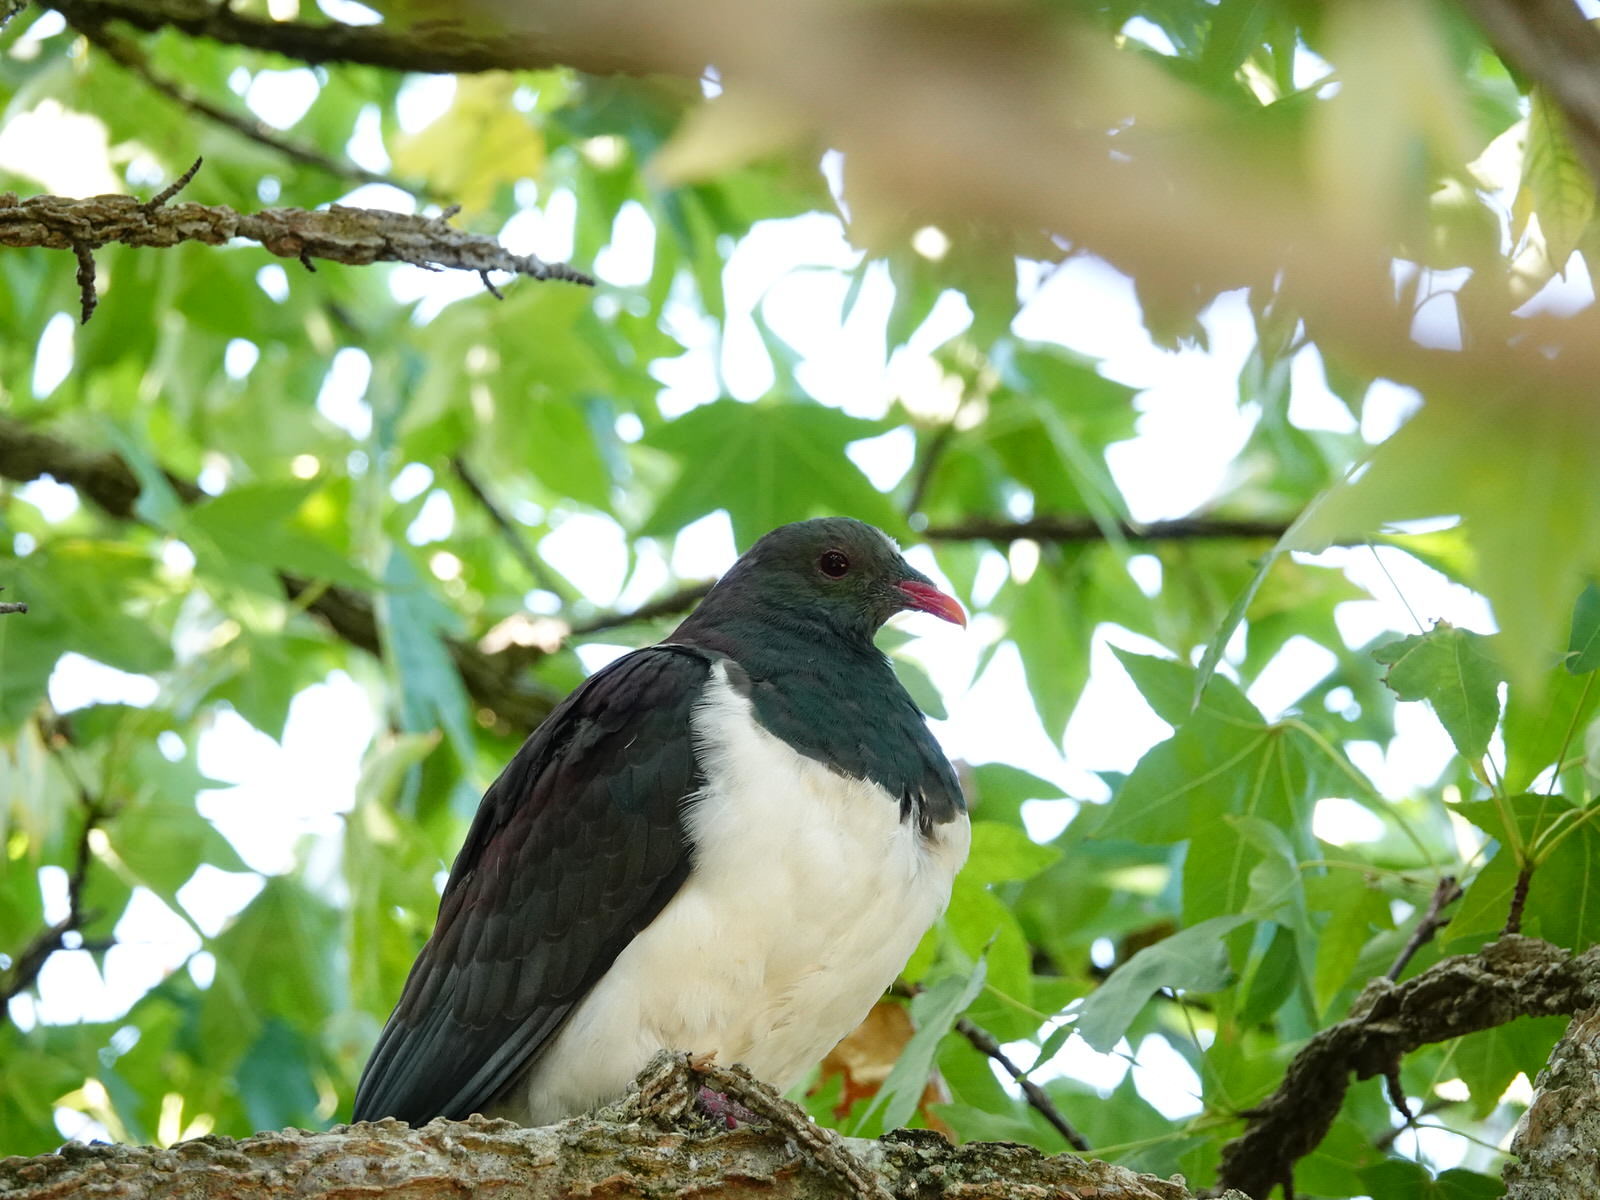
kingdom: Animalia
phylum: Chordata
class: Aves
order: Columbiformes
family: Columbidae
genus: Hemiphaga
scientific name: Hemiphaga novaeseelandiae
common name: New zealand pigeon
